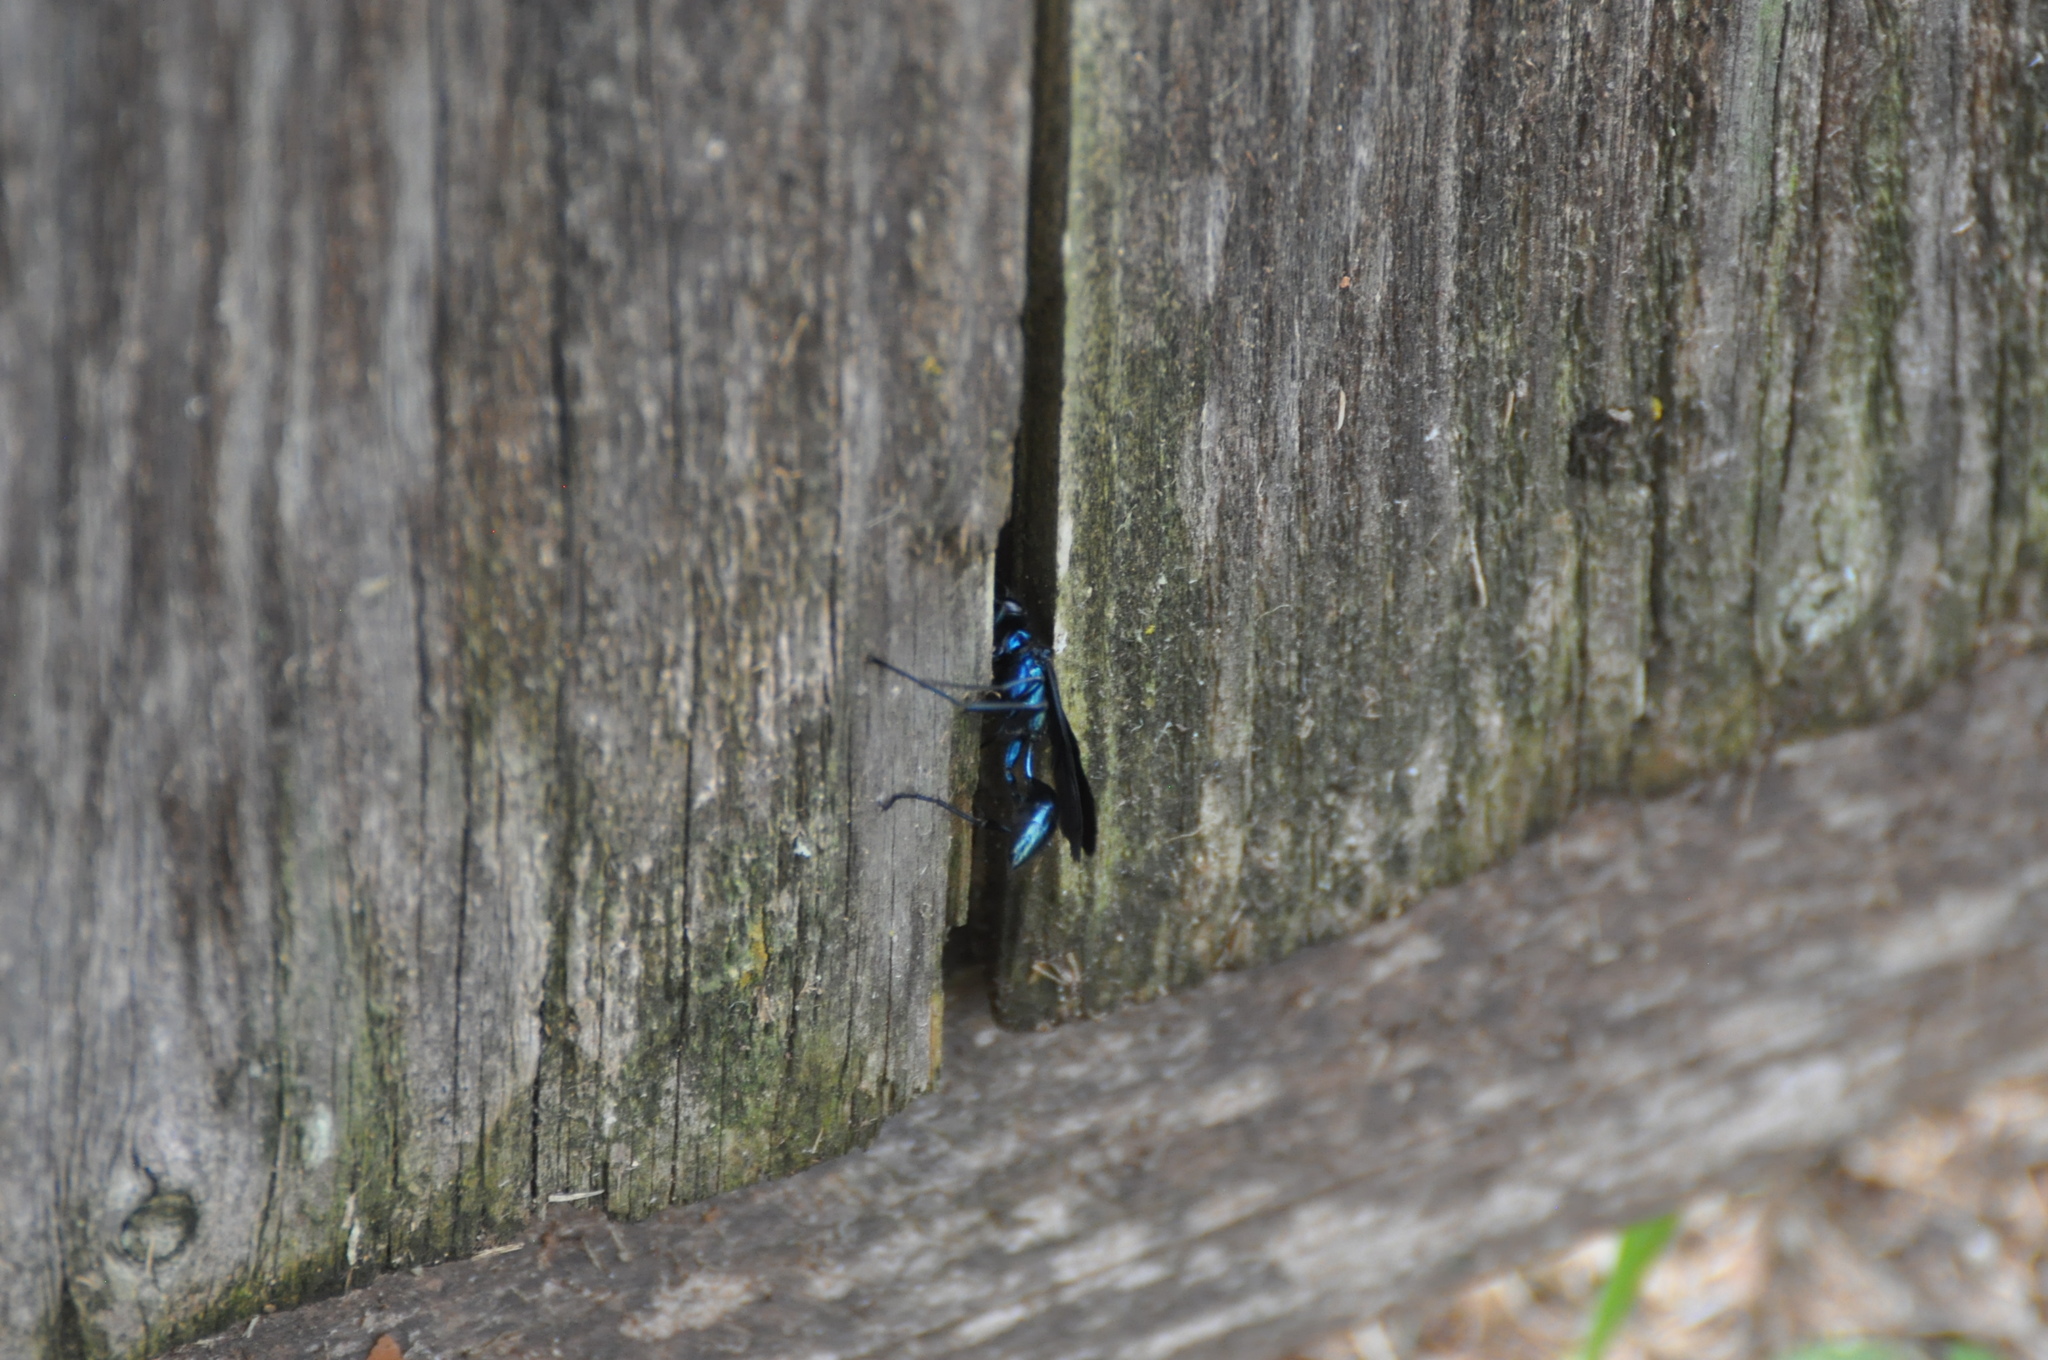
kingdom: Animalia
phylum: Arthropoda
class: Insecta
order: Hymenoptera
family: Sphecidae
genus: Chalybion
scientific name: Chalybion californicum
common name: Mud dauber
